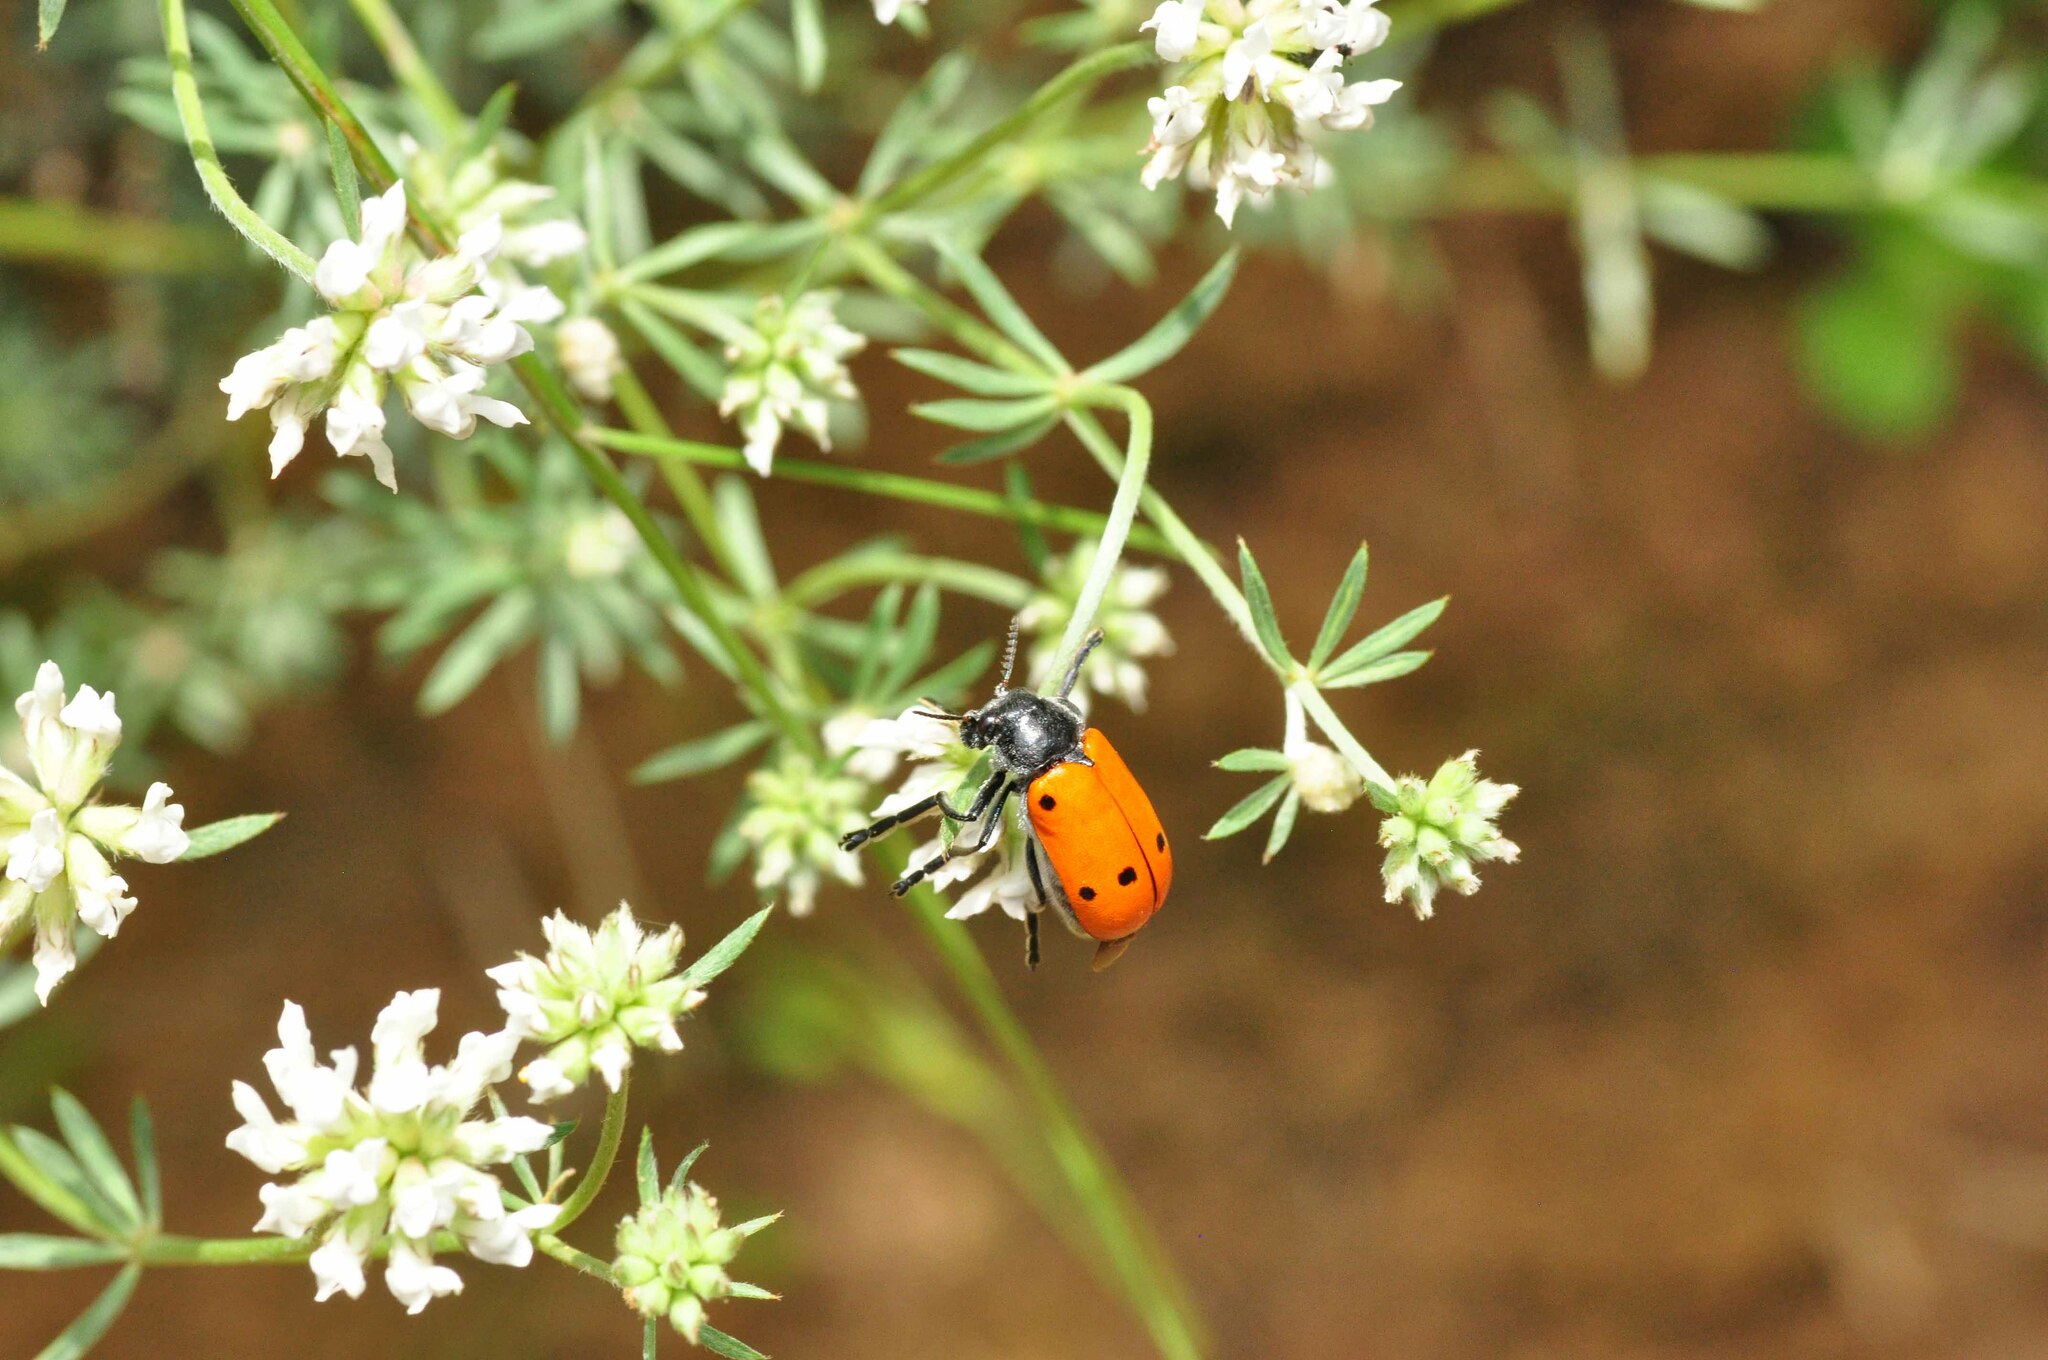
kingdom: Animalia
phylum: Arthropoda
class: Insecta
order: Coleoptera
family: Chrysomelidae
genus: Lachnaia
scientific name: Lachnaia pubescens
